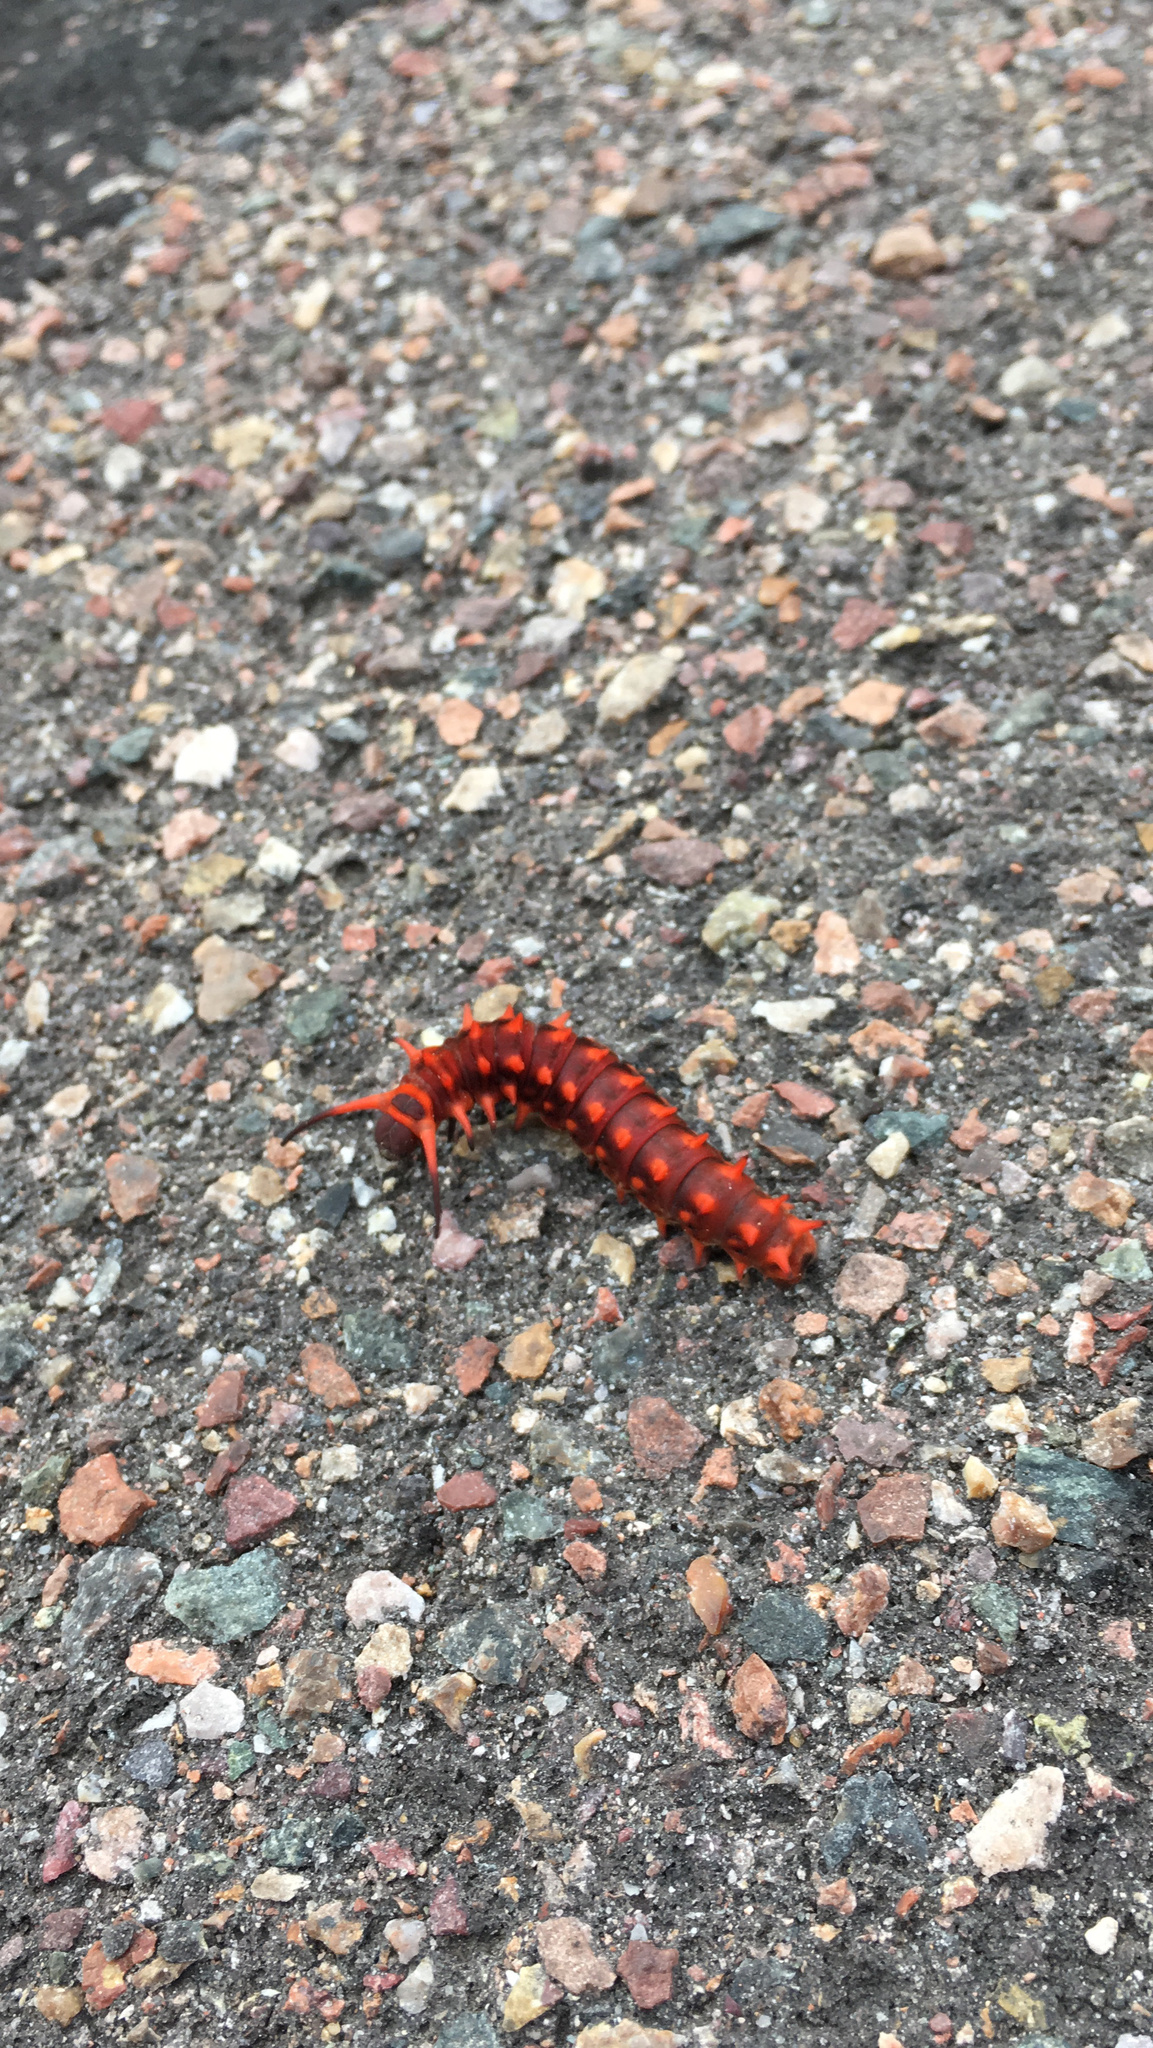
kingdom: Animalia
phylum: Arthropoda
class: Insecta
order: Lepidoptera
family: Papilionidae
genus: Battus
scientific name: Battus philenor
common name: Pipevine swallowtail
